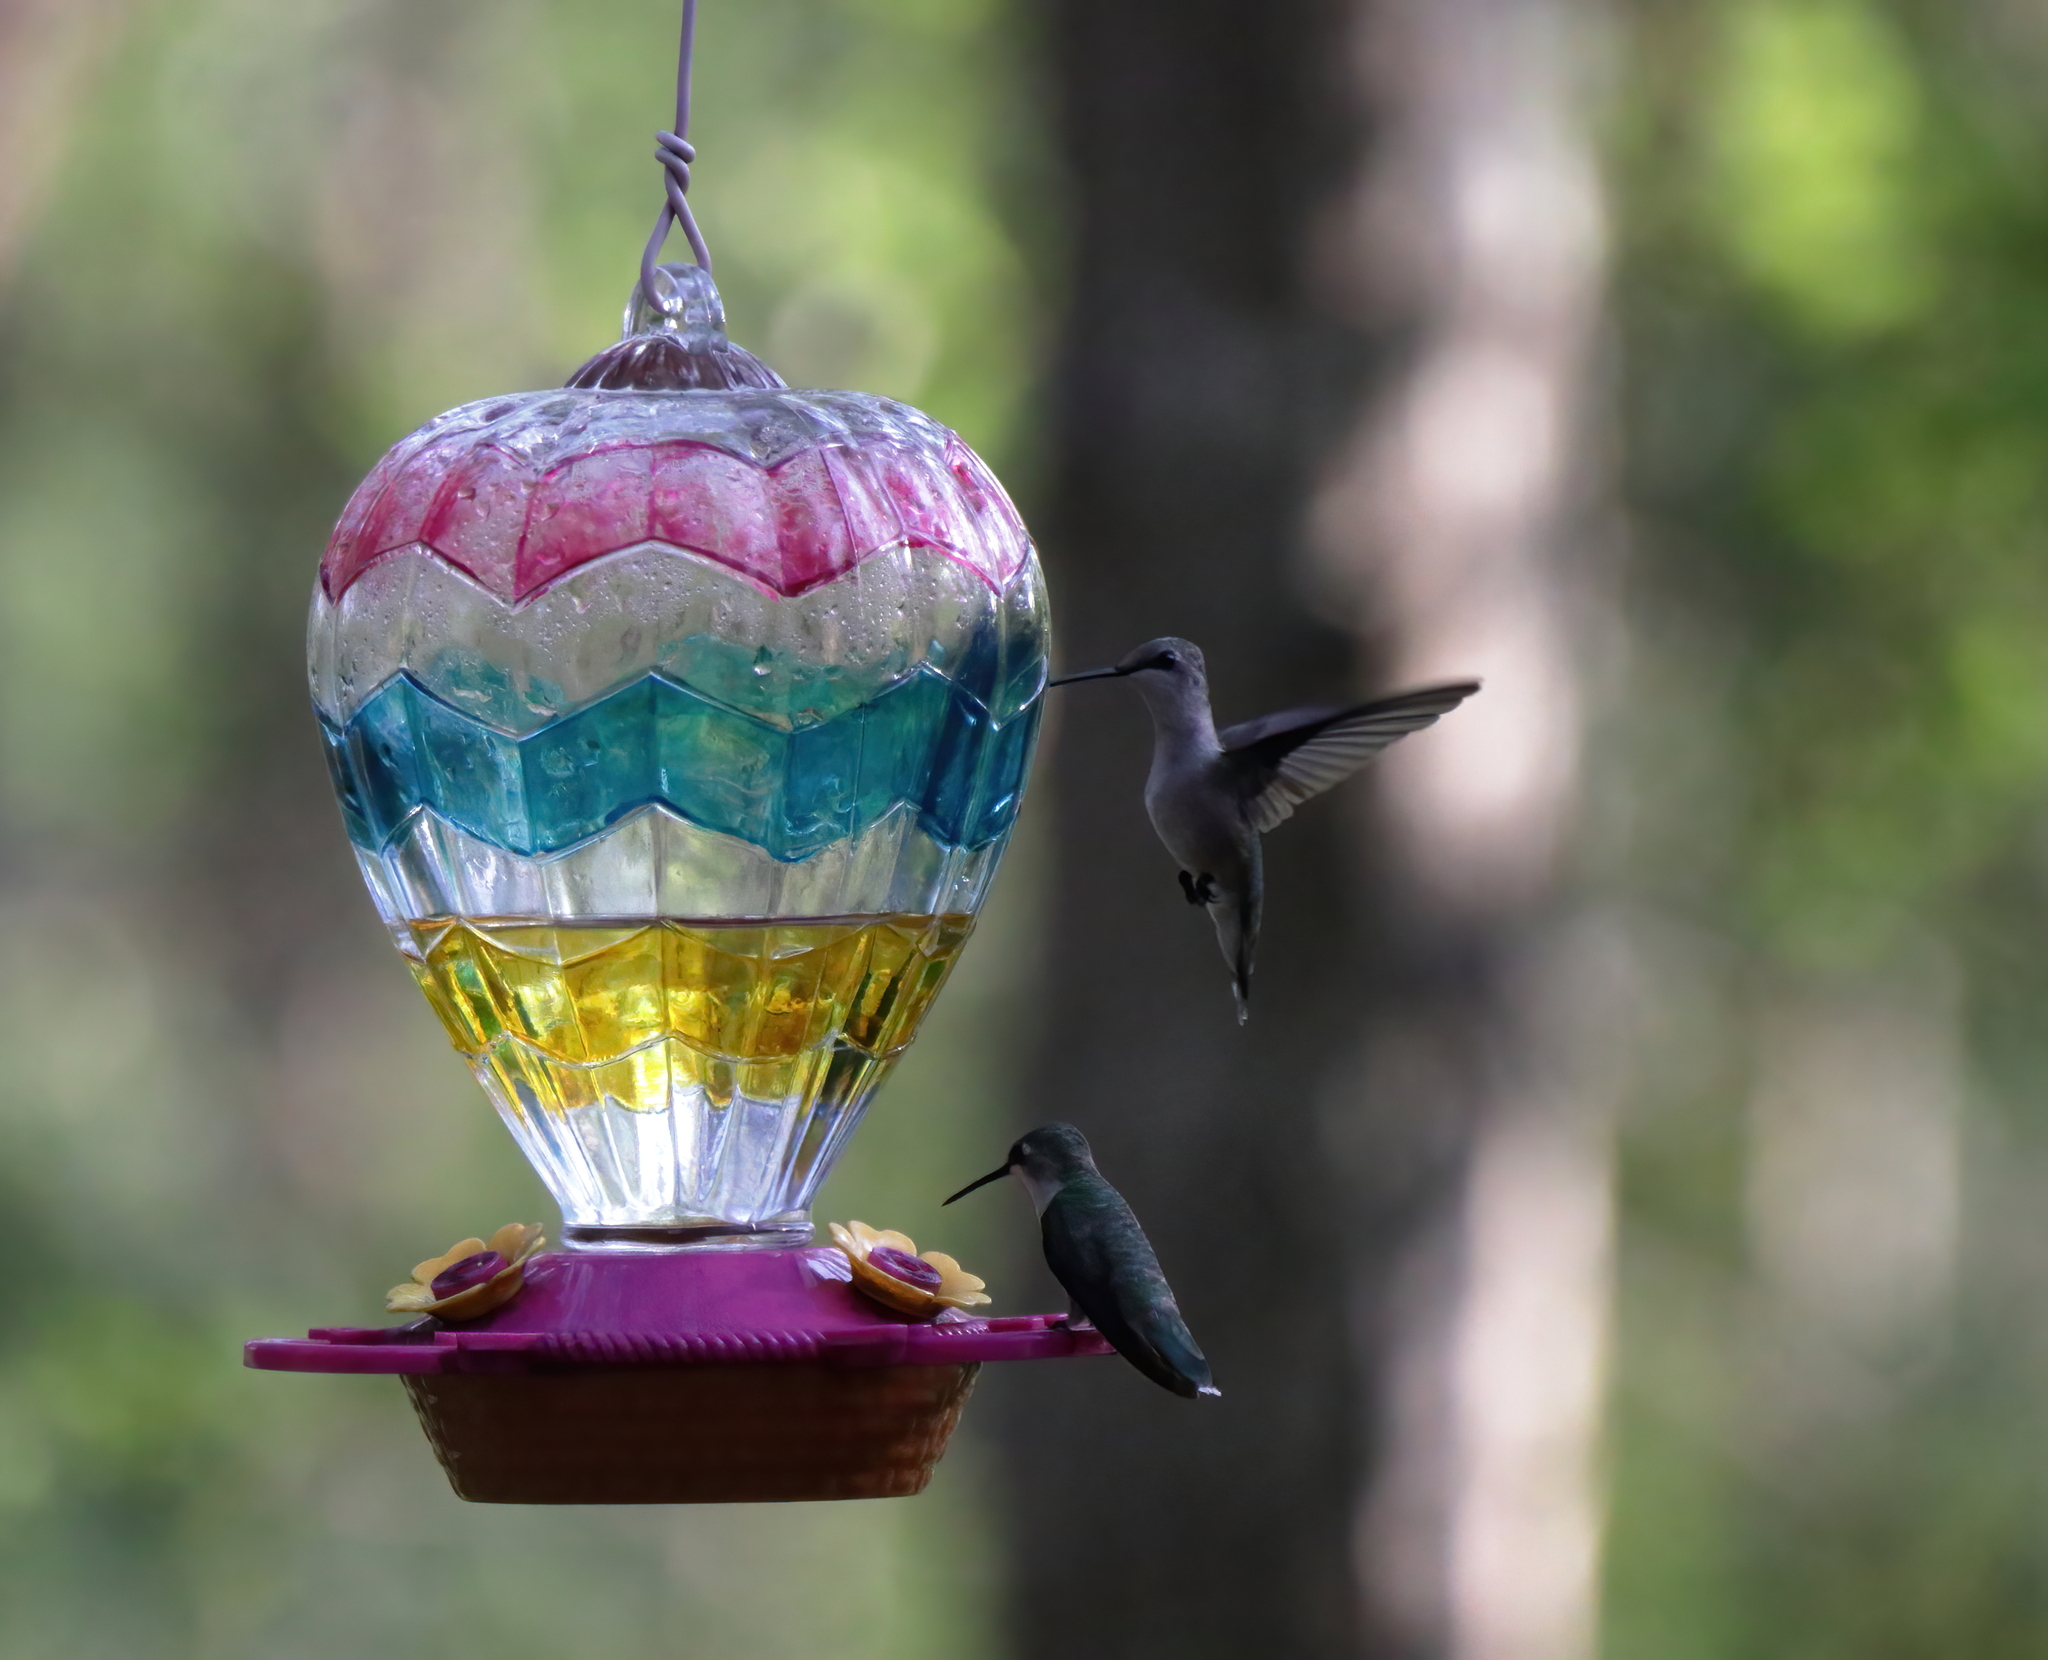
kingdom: Animalia
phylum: Chordata
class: Aves
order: Apodiformes
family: Trochilidae
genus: Archilochus
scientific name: Archilochus colubris
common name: Ruby-throated hummingbird
